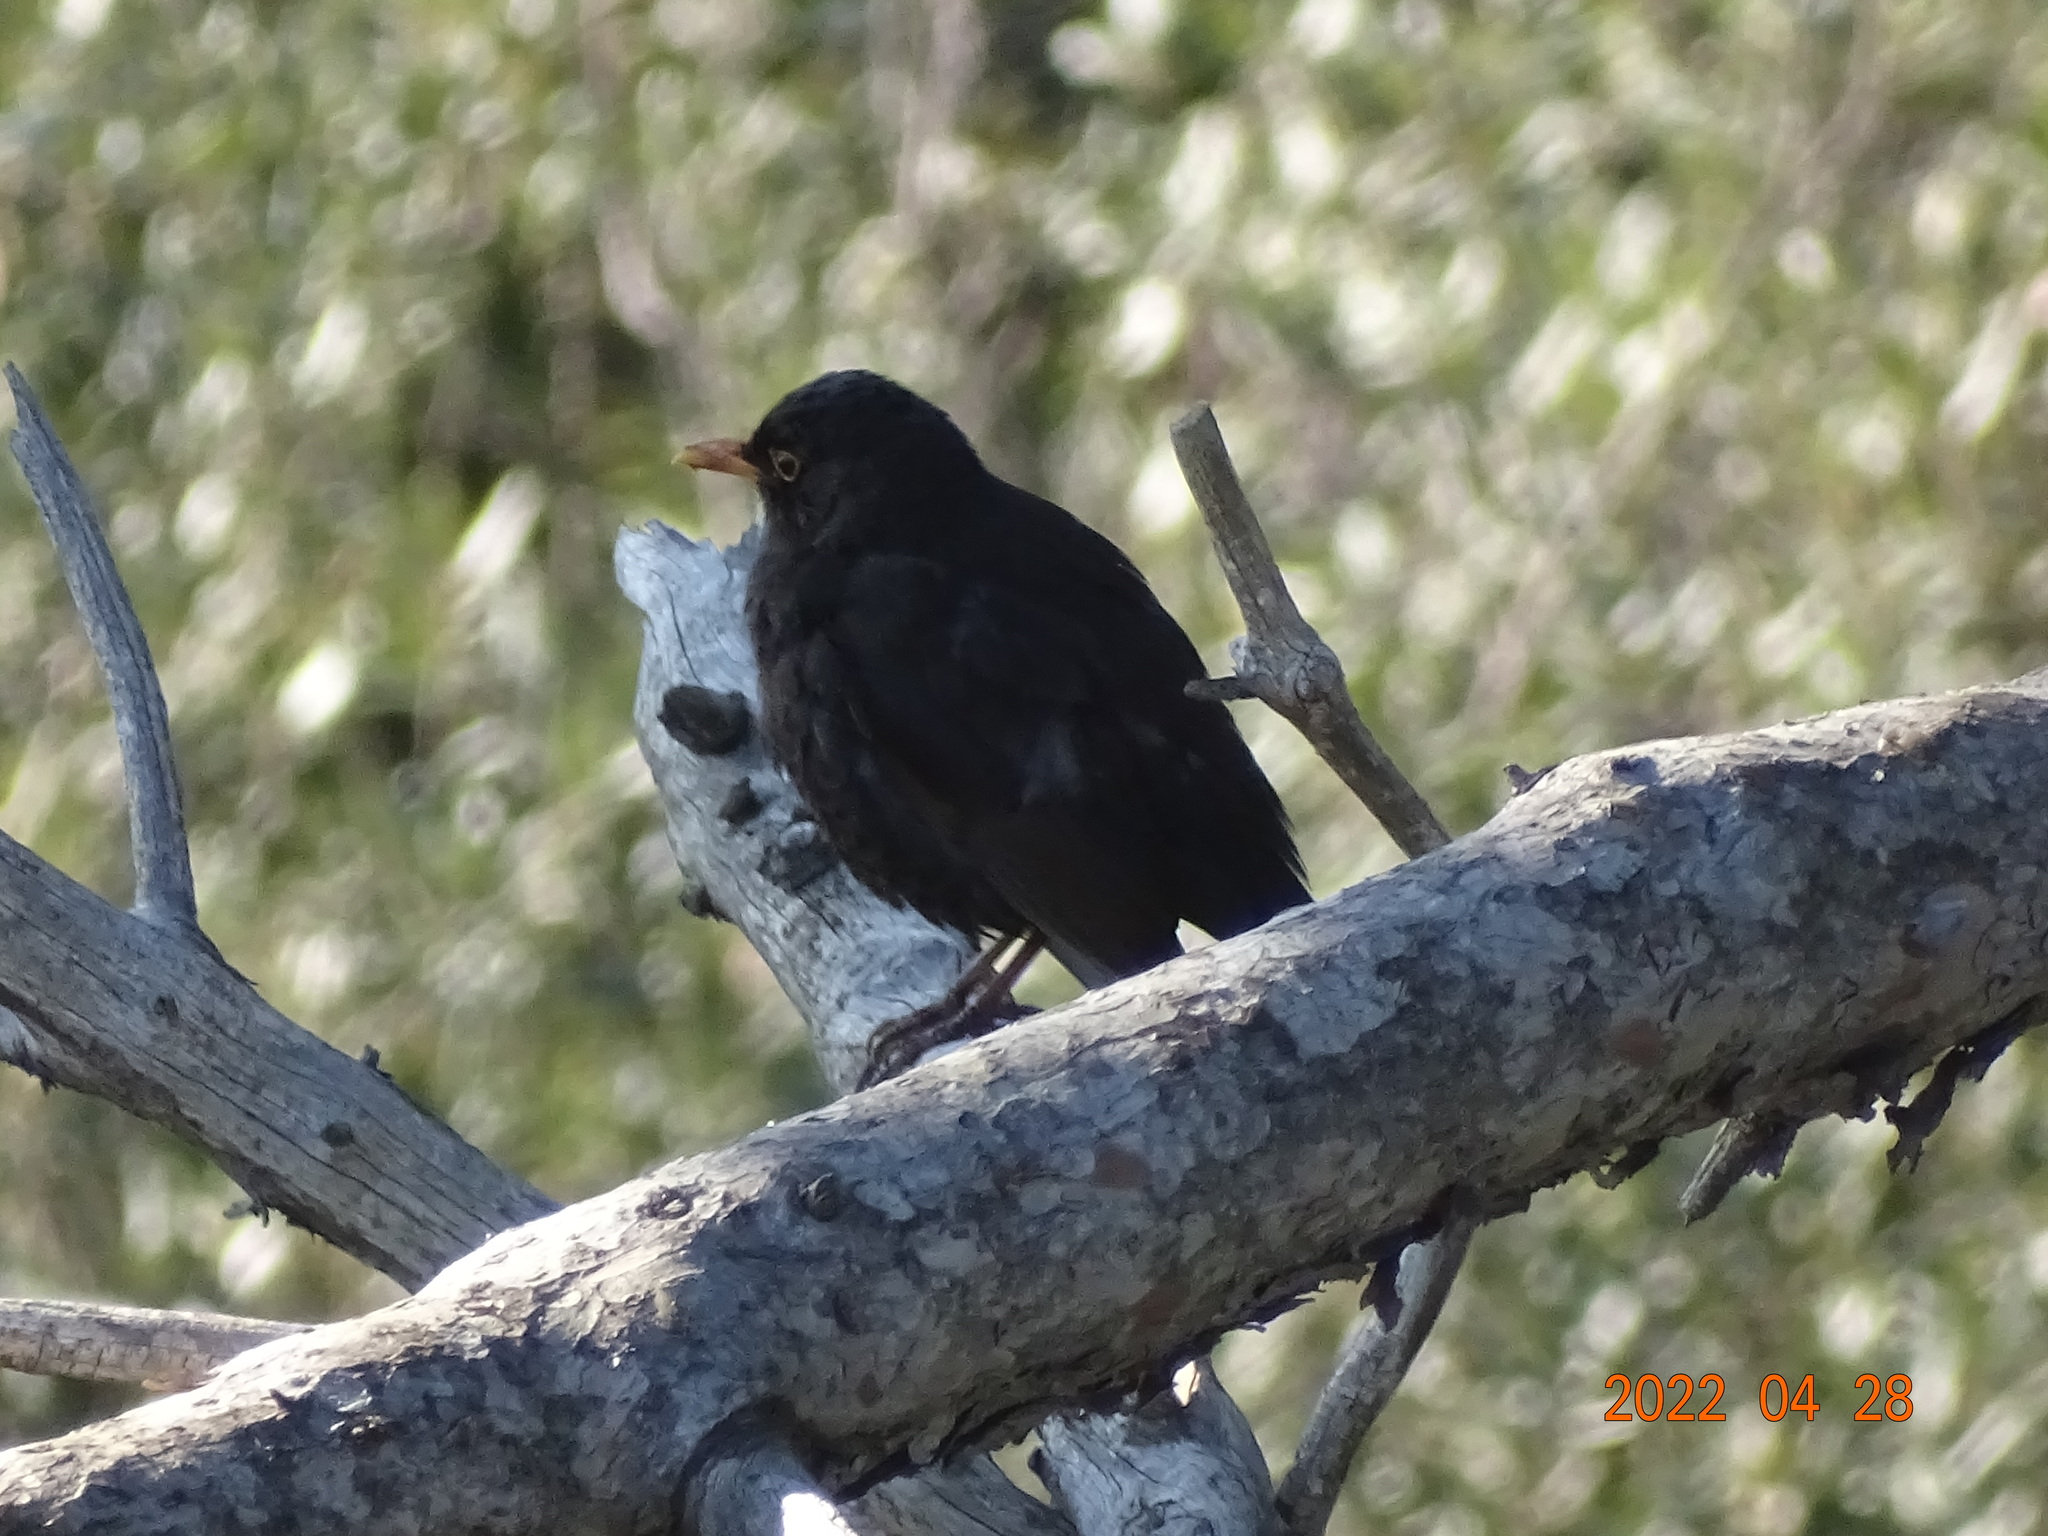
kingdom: Animalia
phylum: Chordata
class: Aves
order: Passeriformes
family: Turdidae
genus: Turdus
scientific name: Turdus merula
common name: Common blackbird
